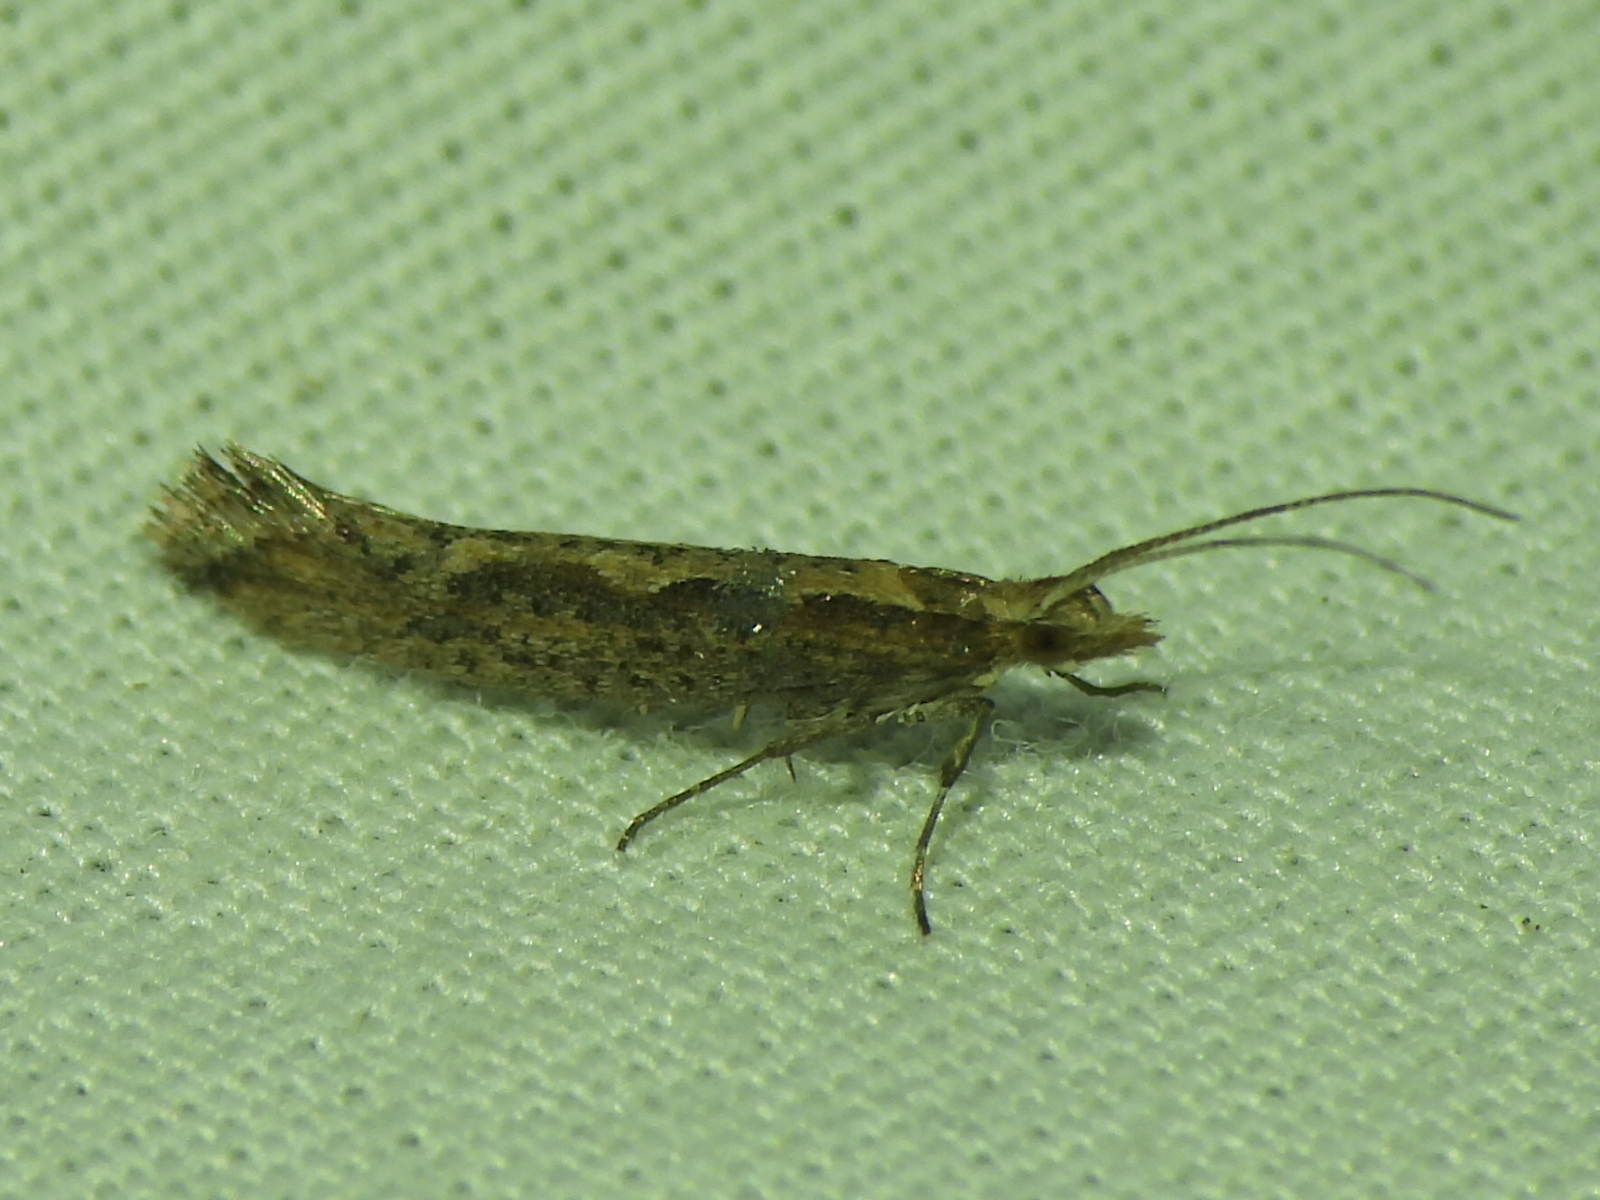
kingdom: Animalia
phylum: Arthropoda
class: Insecta
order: Lepidoptera
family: Plutellidae
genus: Plutella
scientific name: Plutella xylostella
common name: Diamond-back moth
